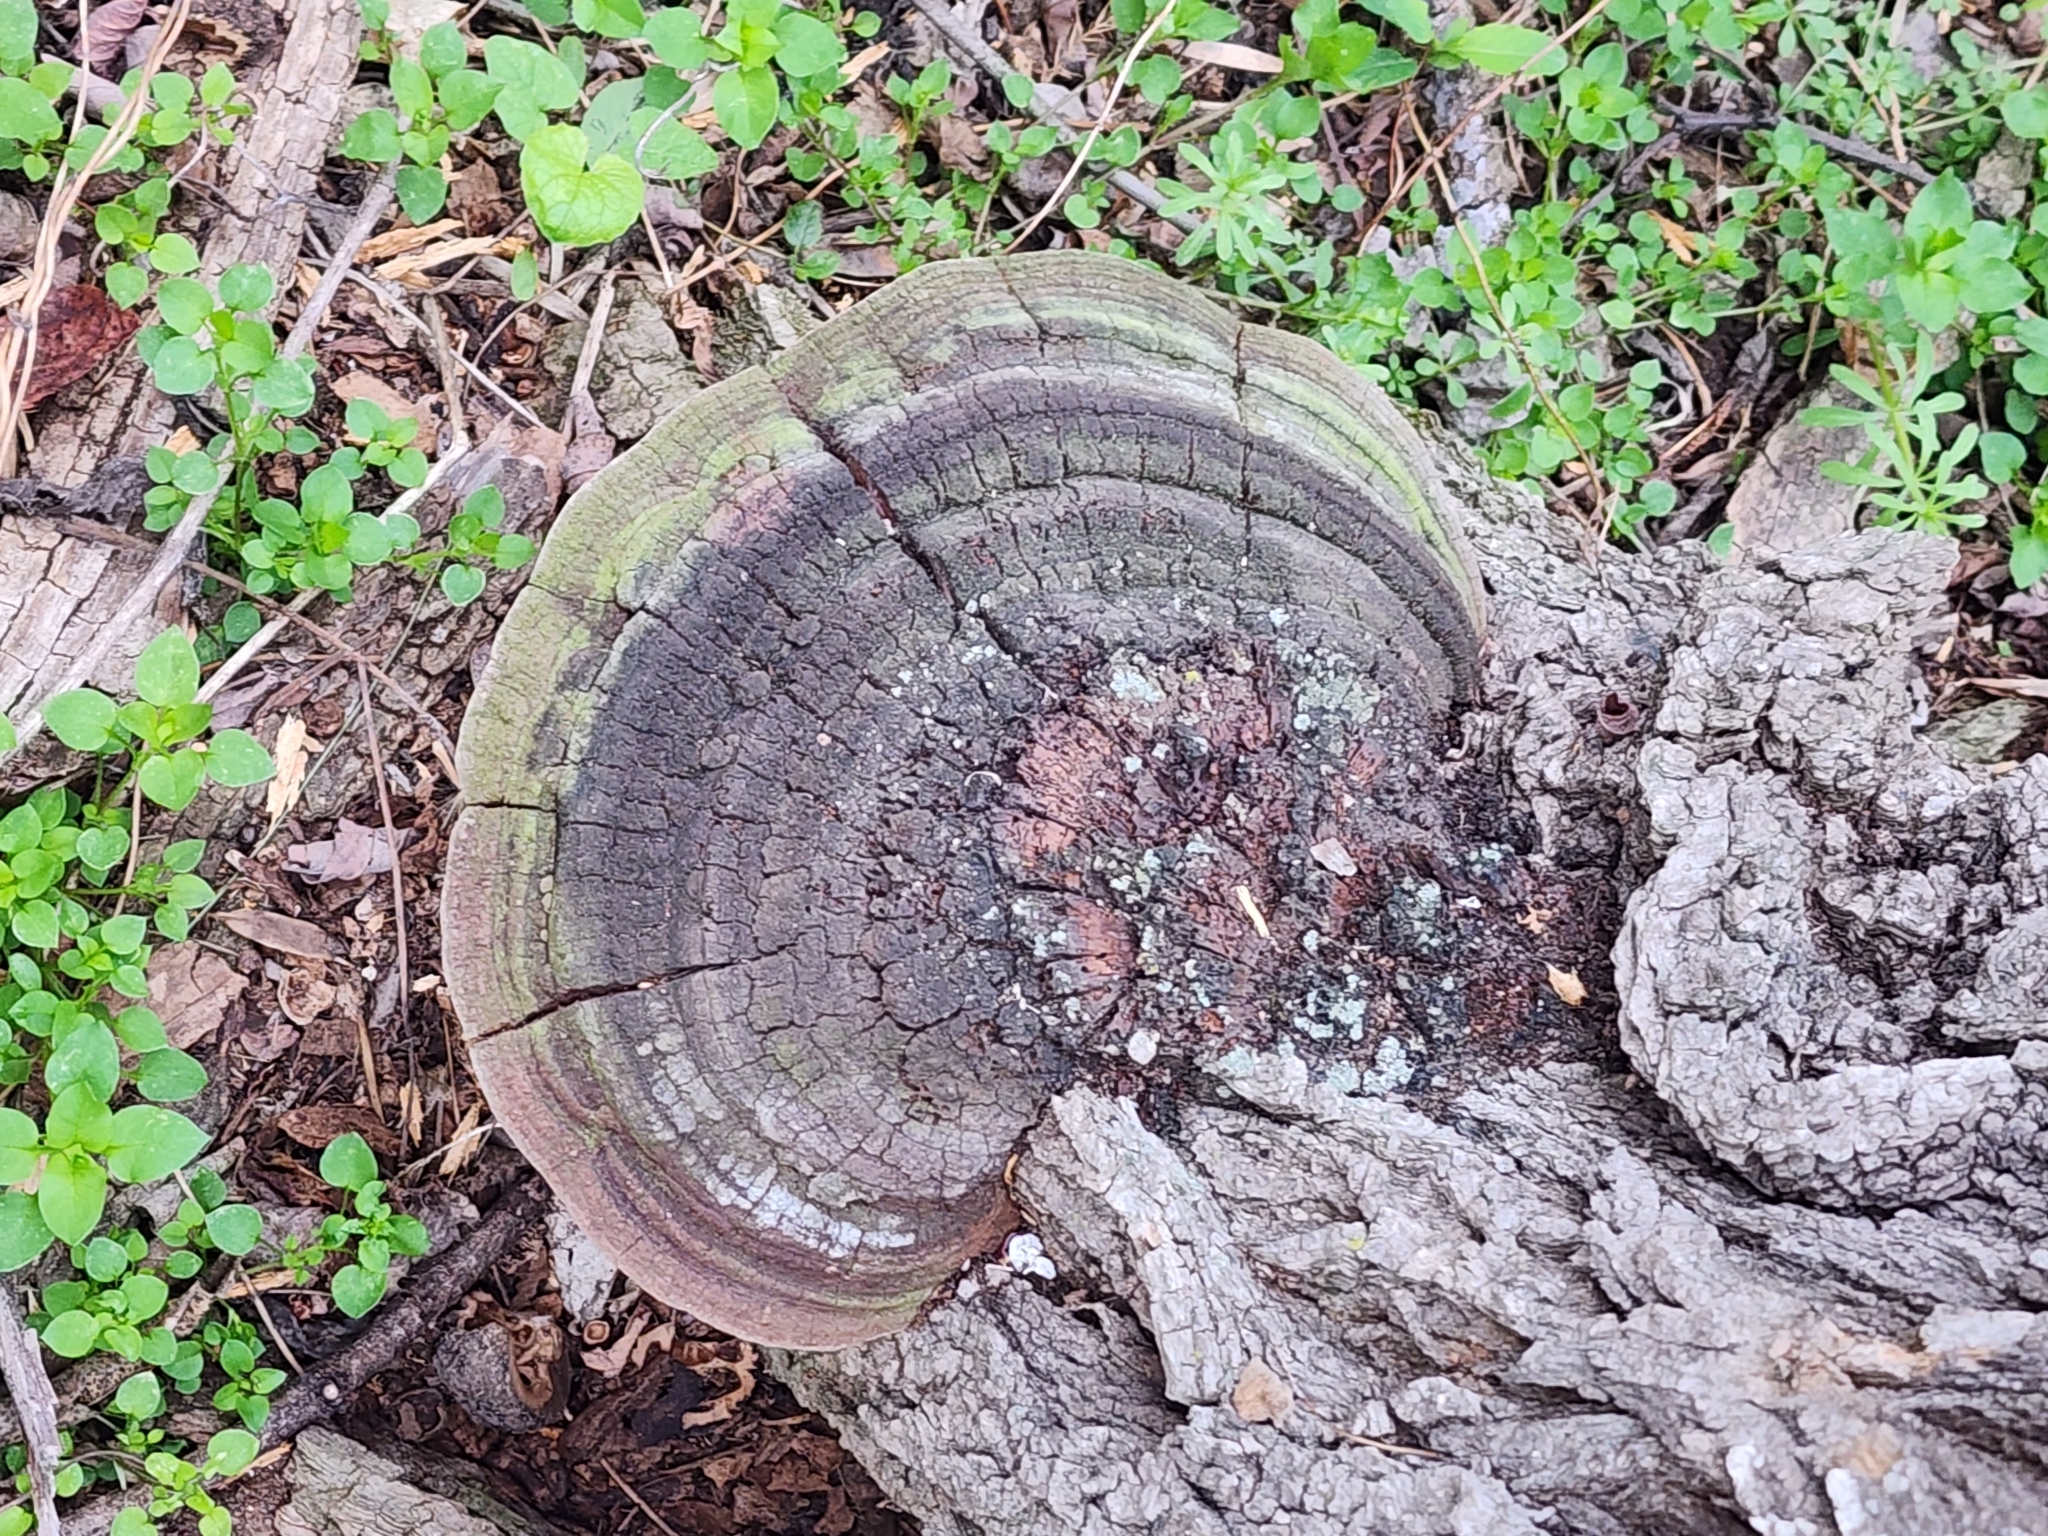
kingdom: Fungi
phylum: Basidiomycota
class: Agaricomycetes
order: Hymenochaetales
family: Hymenochaetaceae
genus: Phellinus
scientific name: Phellinus robiniae
